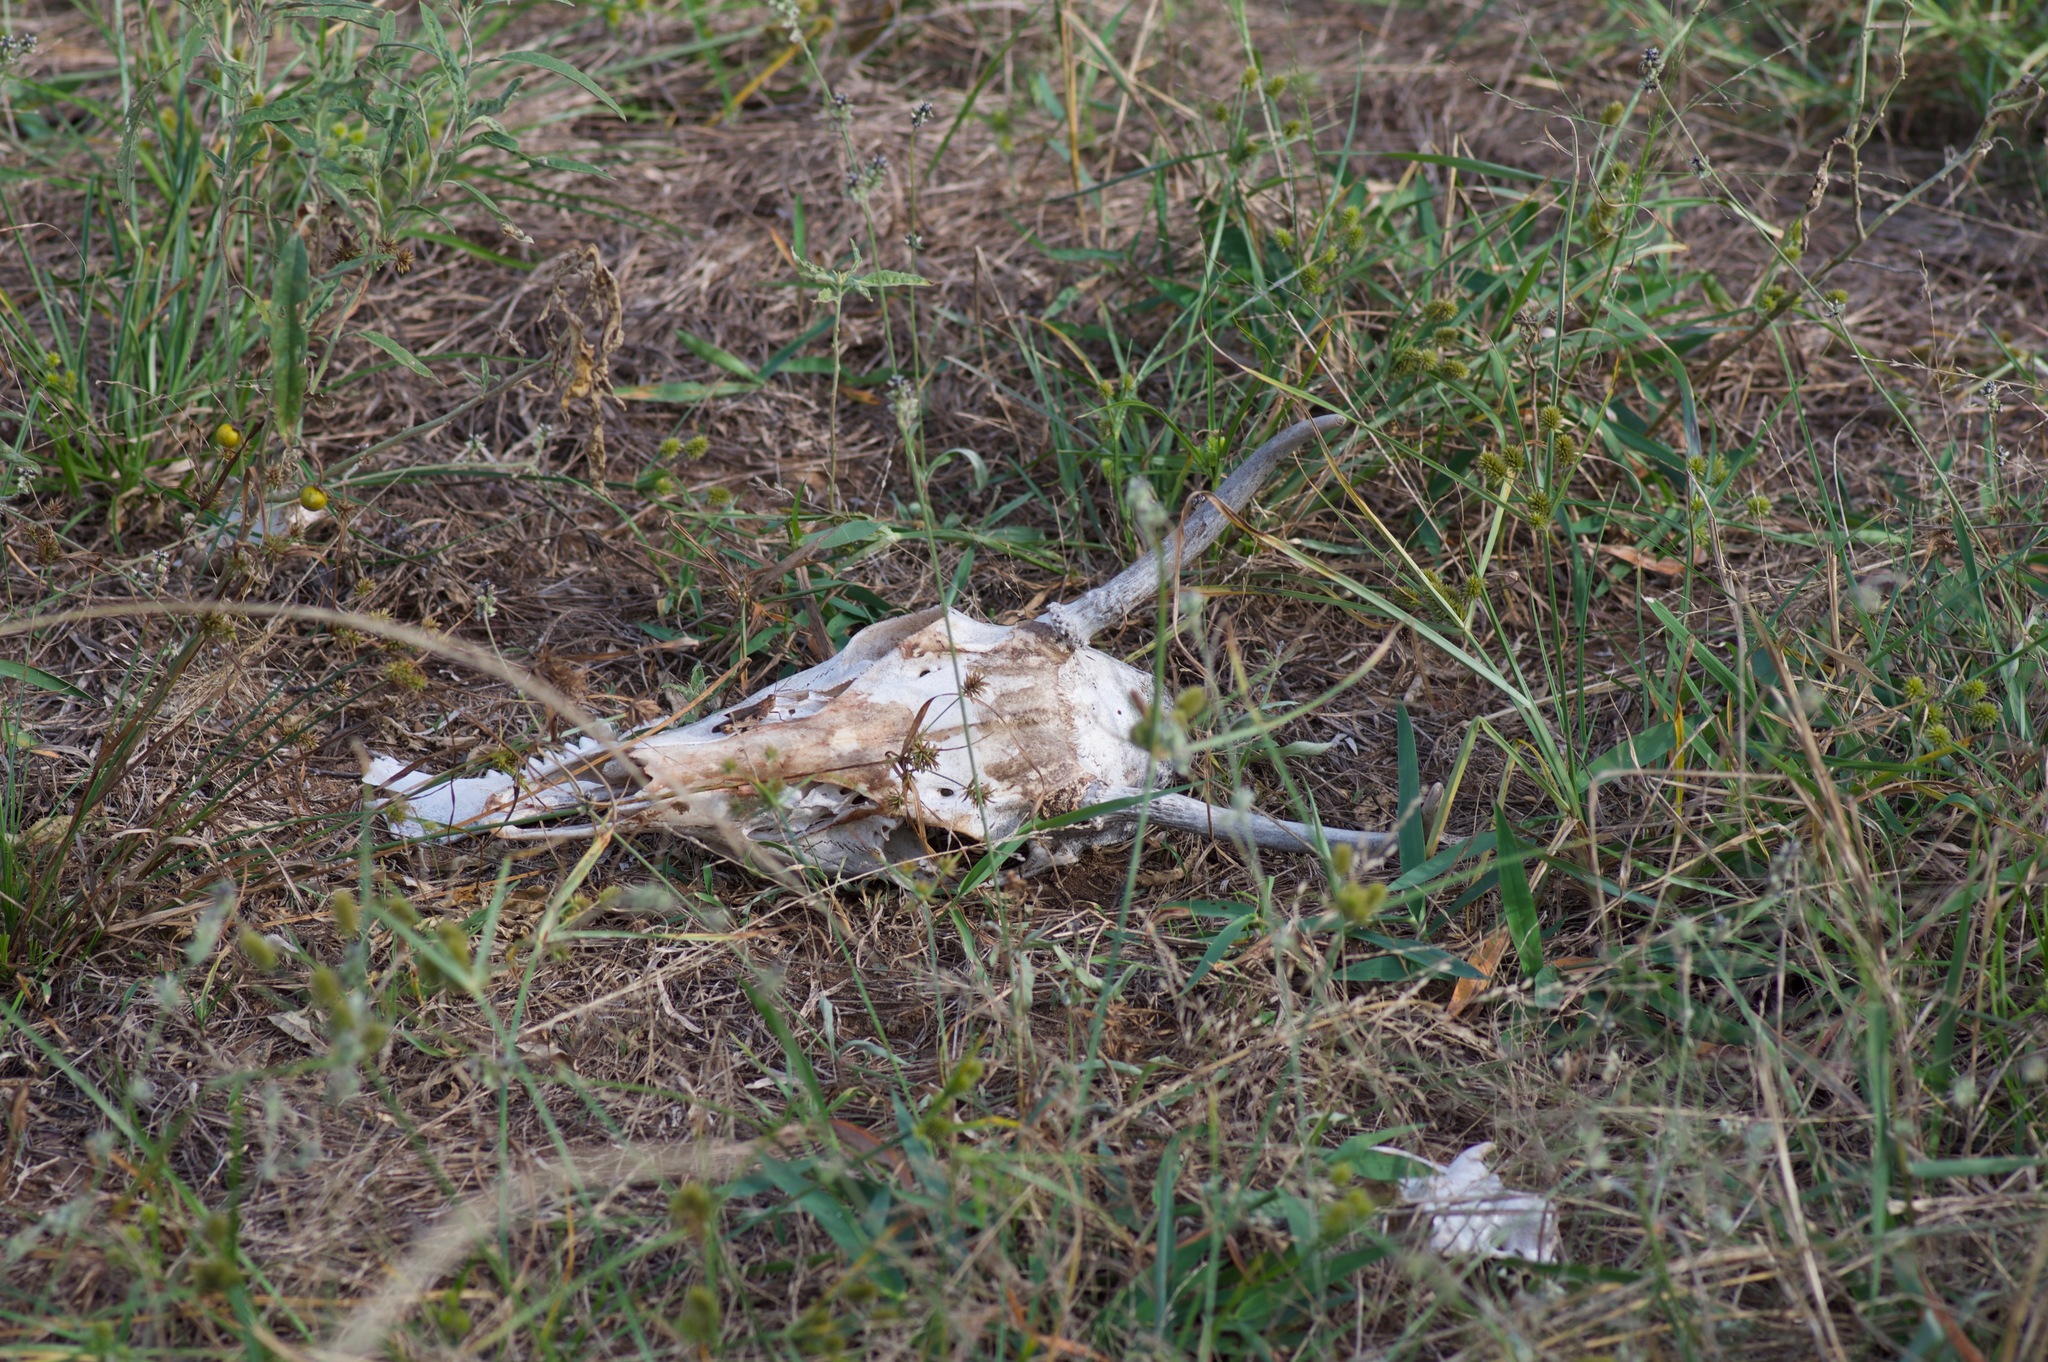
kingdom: Animalia
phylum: Chordata
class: Mammalia
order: Artiodactyla
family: Cervidae
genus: Odocoileus
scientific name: Odocoileus virginianus
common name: White-tailed deer
